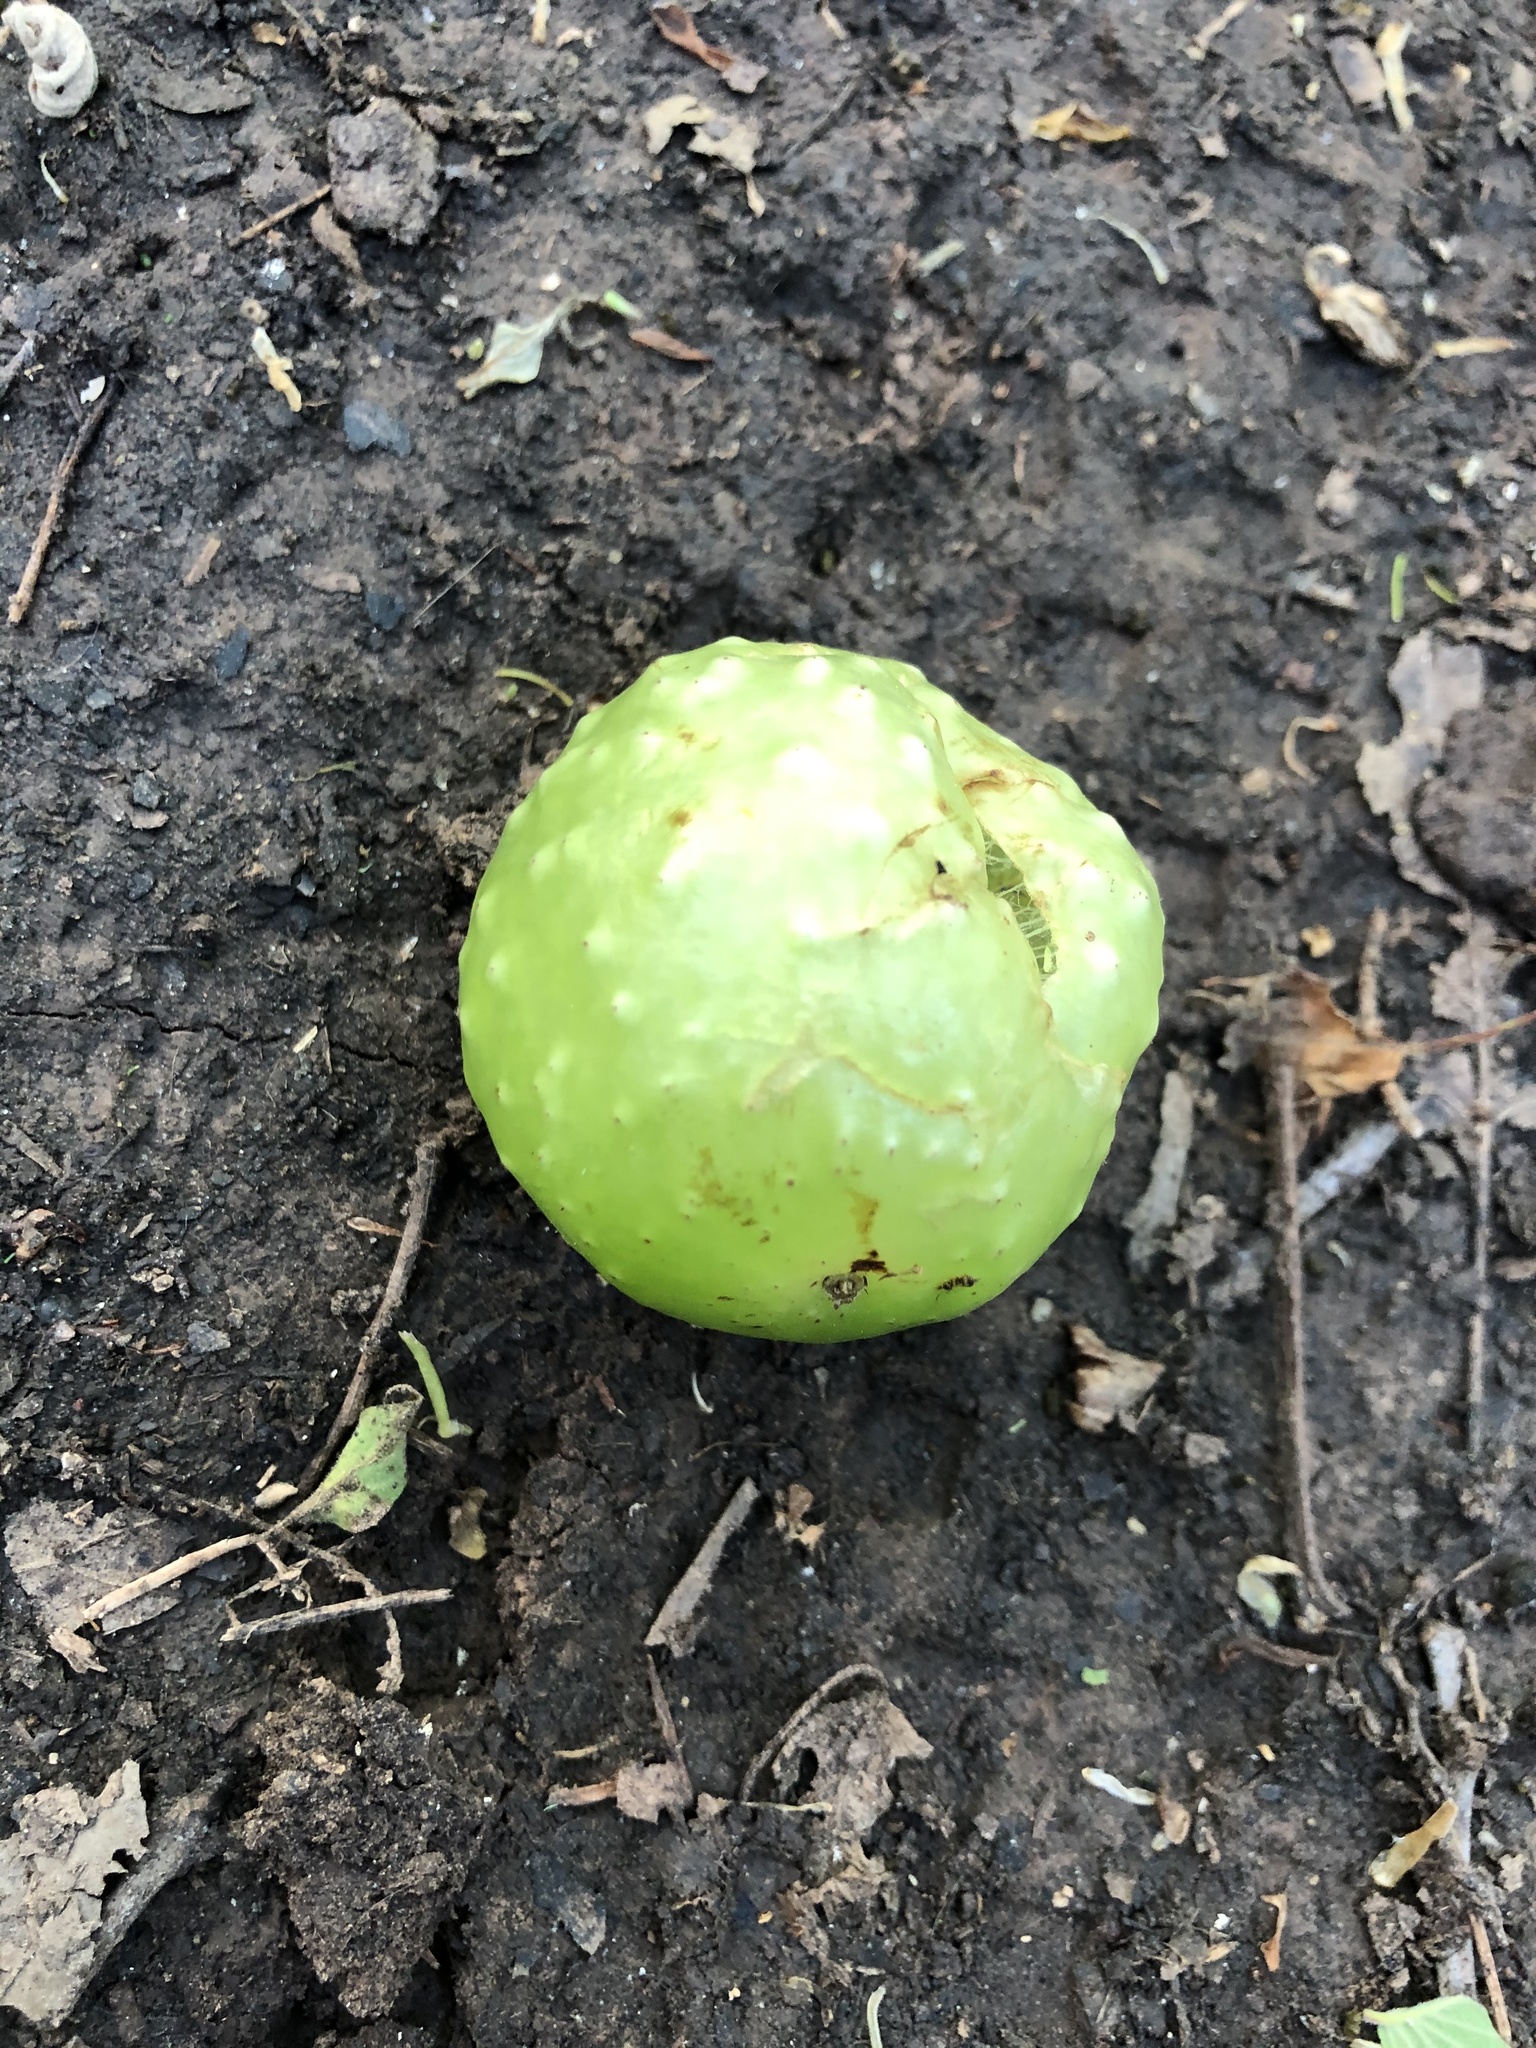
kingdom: Animalia
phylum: Arthropoda
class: Insecta
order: Hymenoptera
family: Cynipidae
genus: Amphibolips
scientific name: Amphibolips
